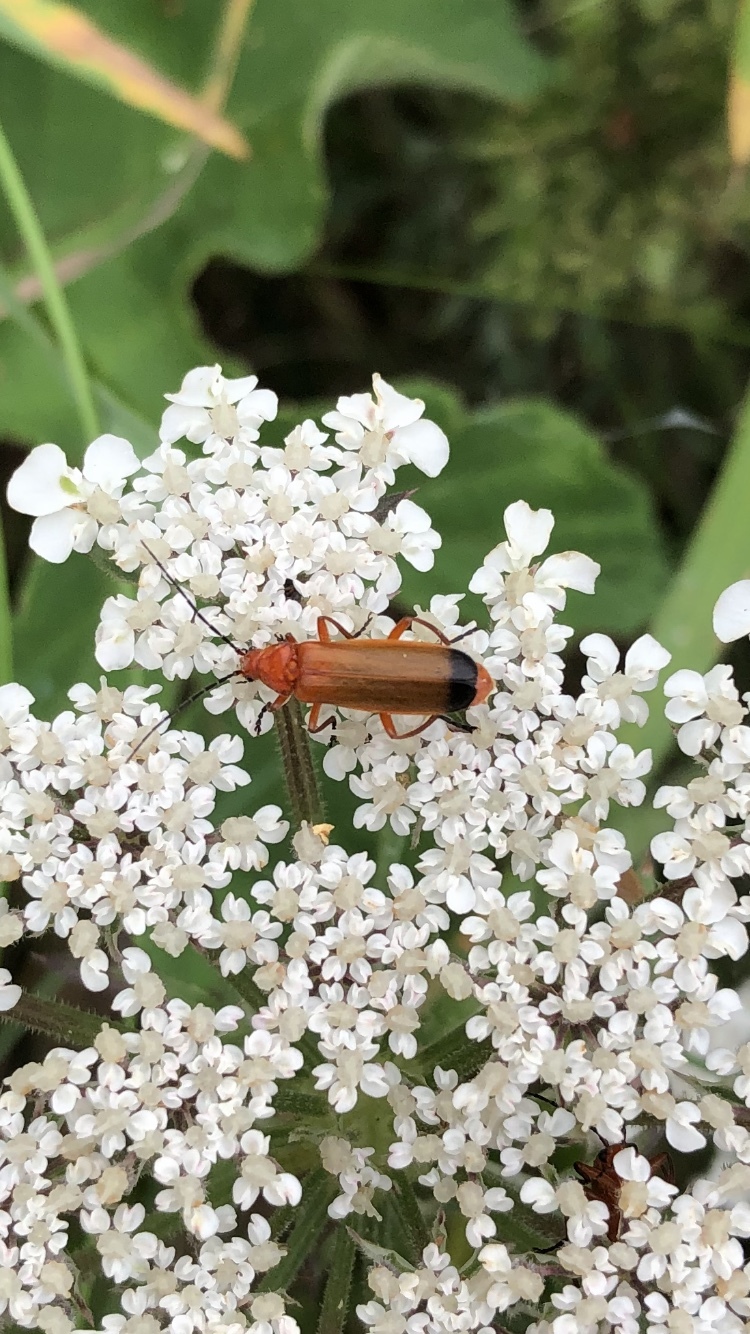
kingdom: Animalia
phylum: Arthropoda
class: Insecta
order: Coleoptera
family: Cantharidae
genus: Rhagonycha
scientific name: Rhagonycha fulva
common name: Common red soldier beetle
